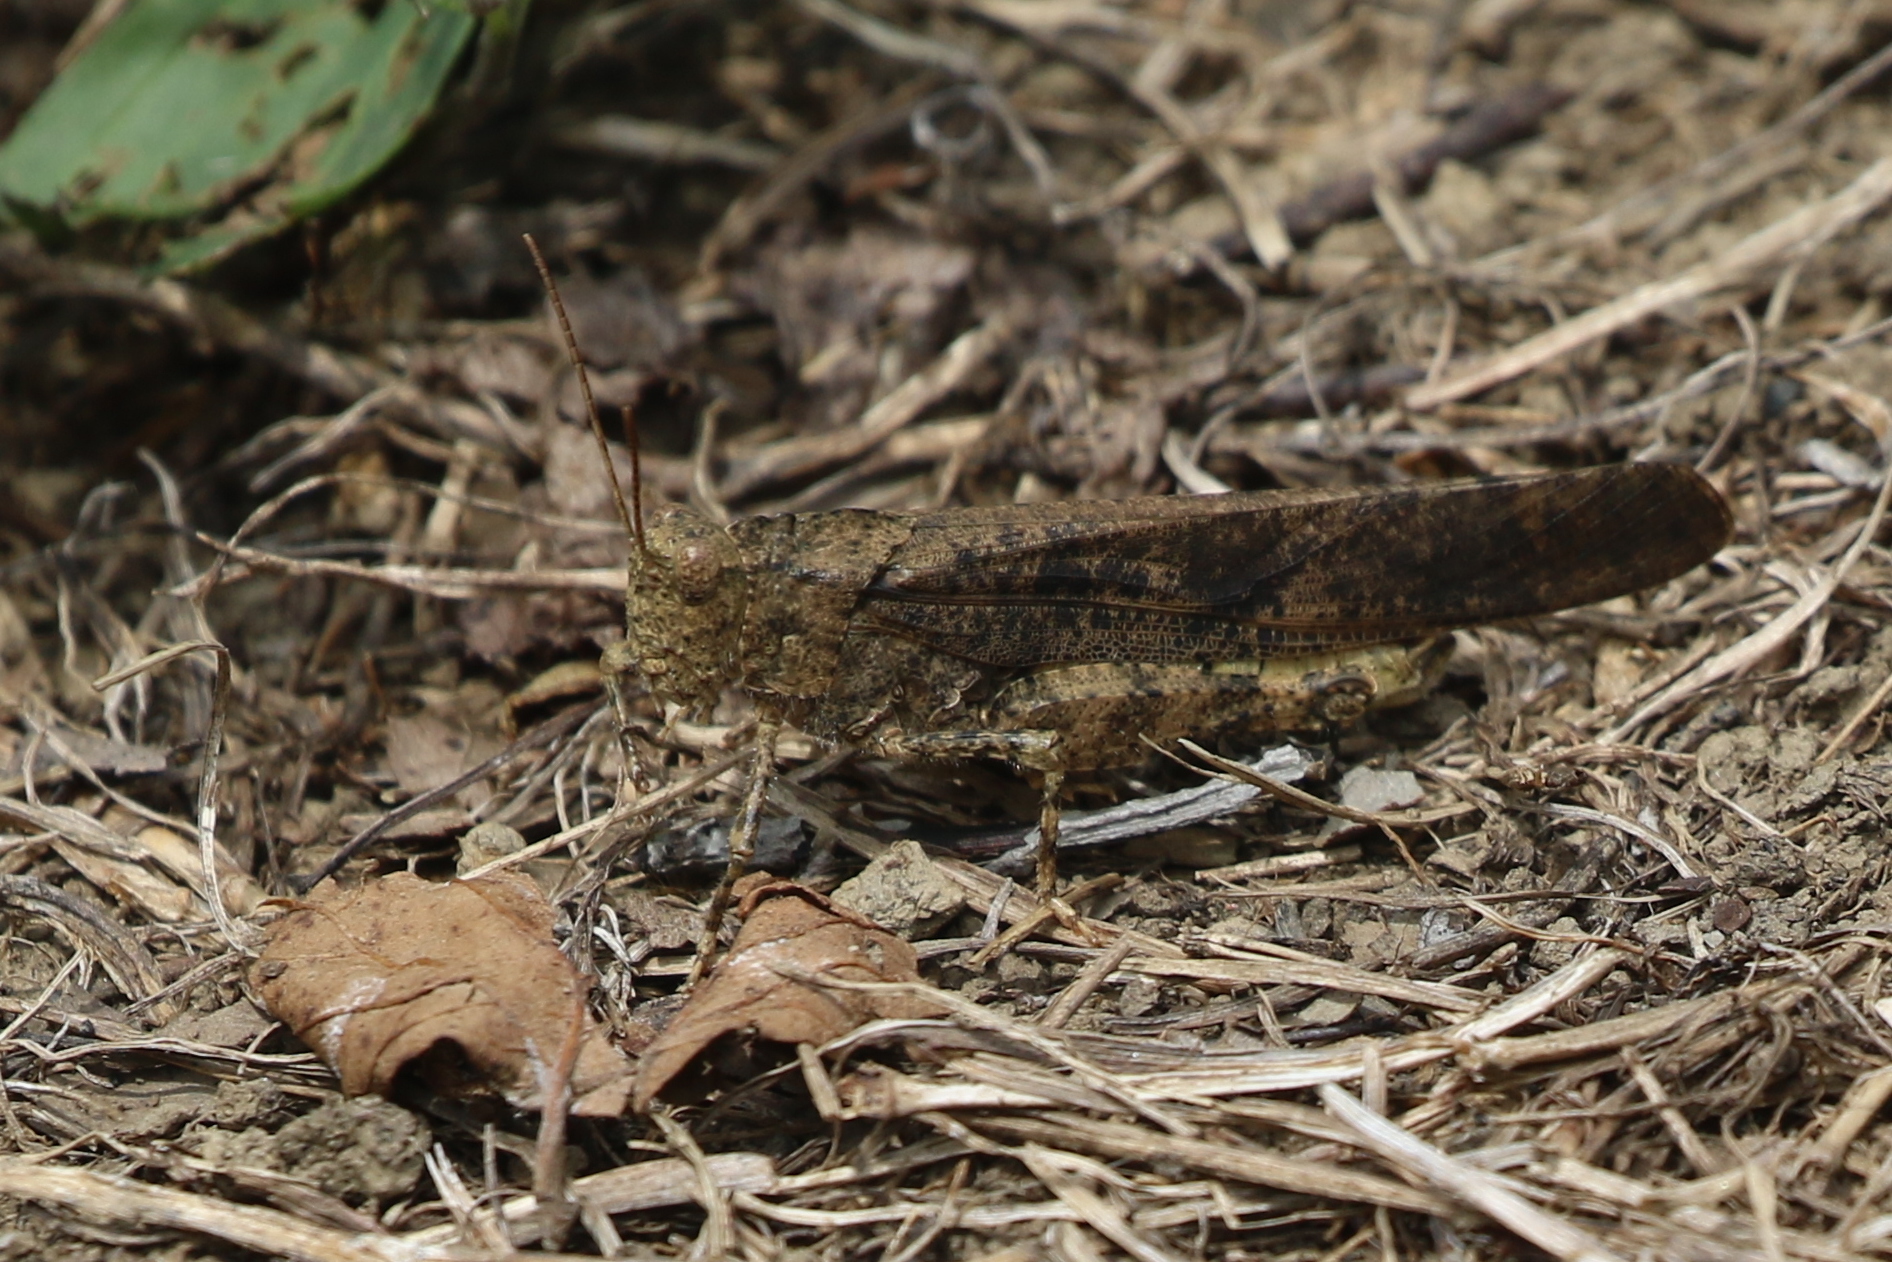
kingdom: Animalia
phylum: Arthropoda
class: Insecta
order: Orthoptera
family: Acrididae
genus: Dissosteira
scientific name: Dissosteira carolina
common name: Carolina grasshopper
